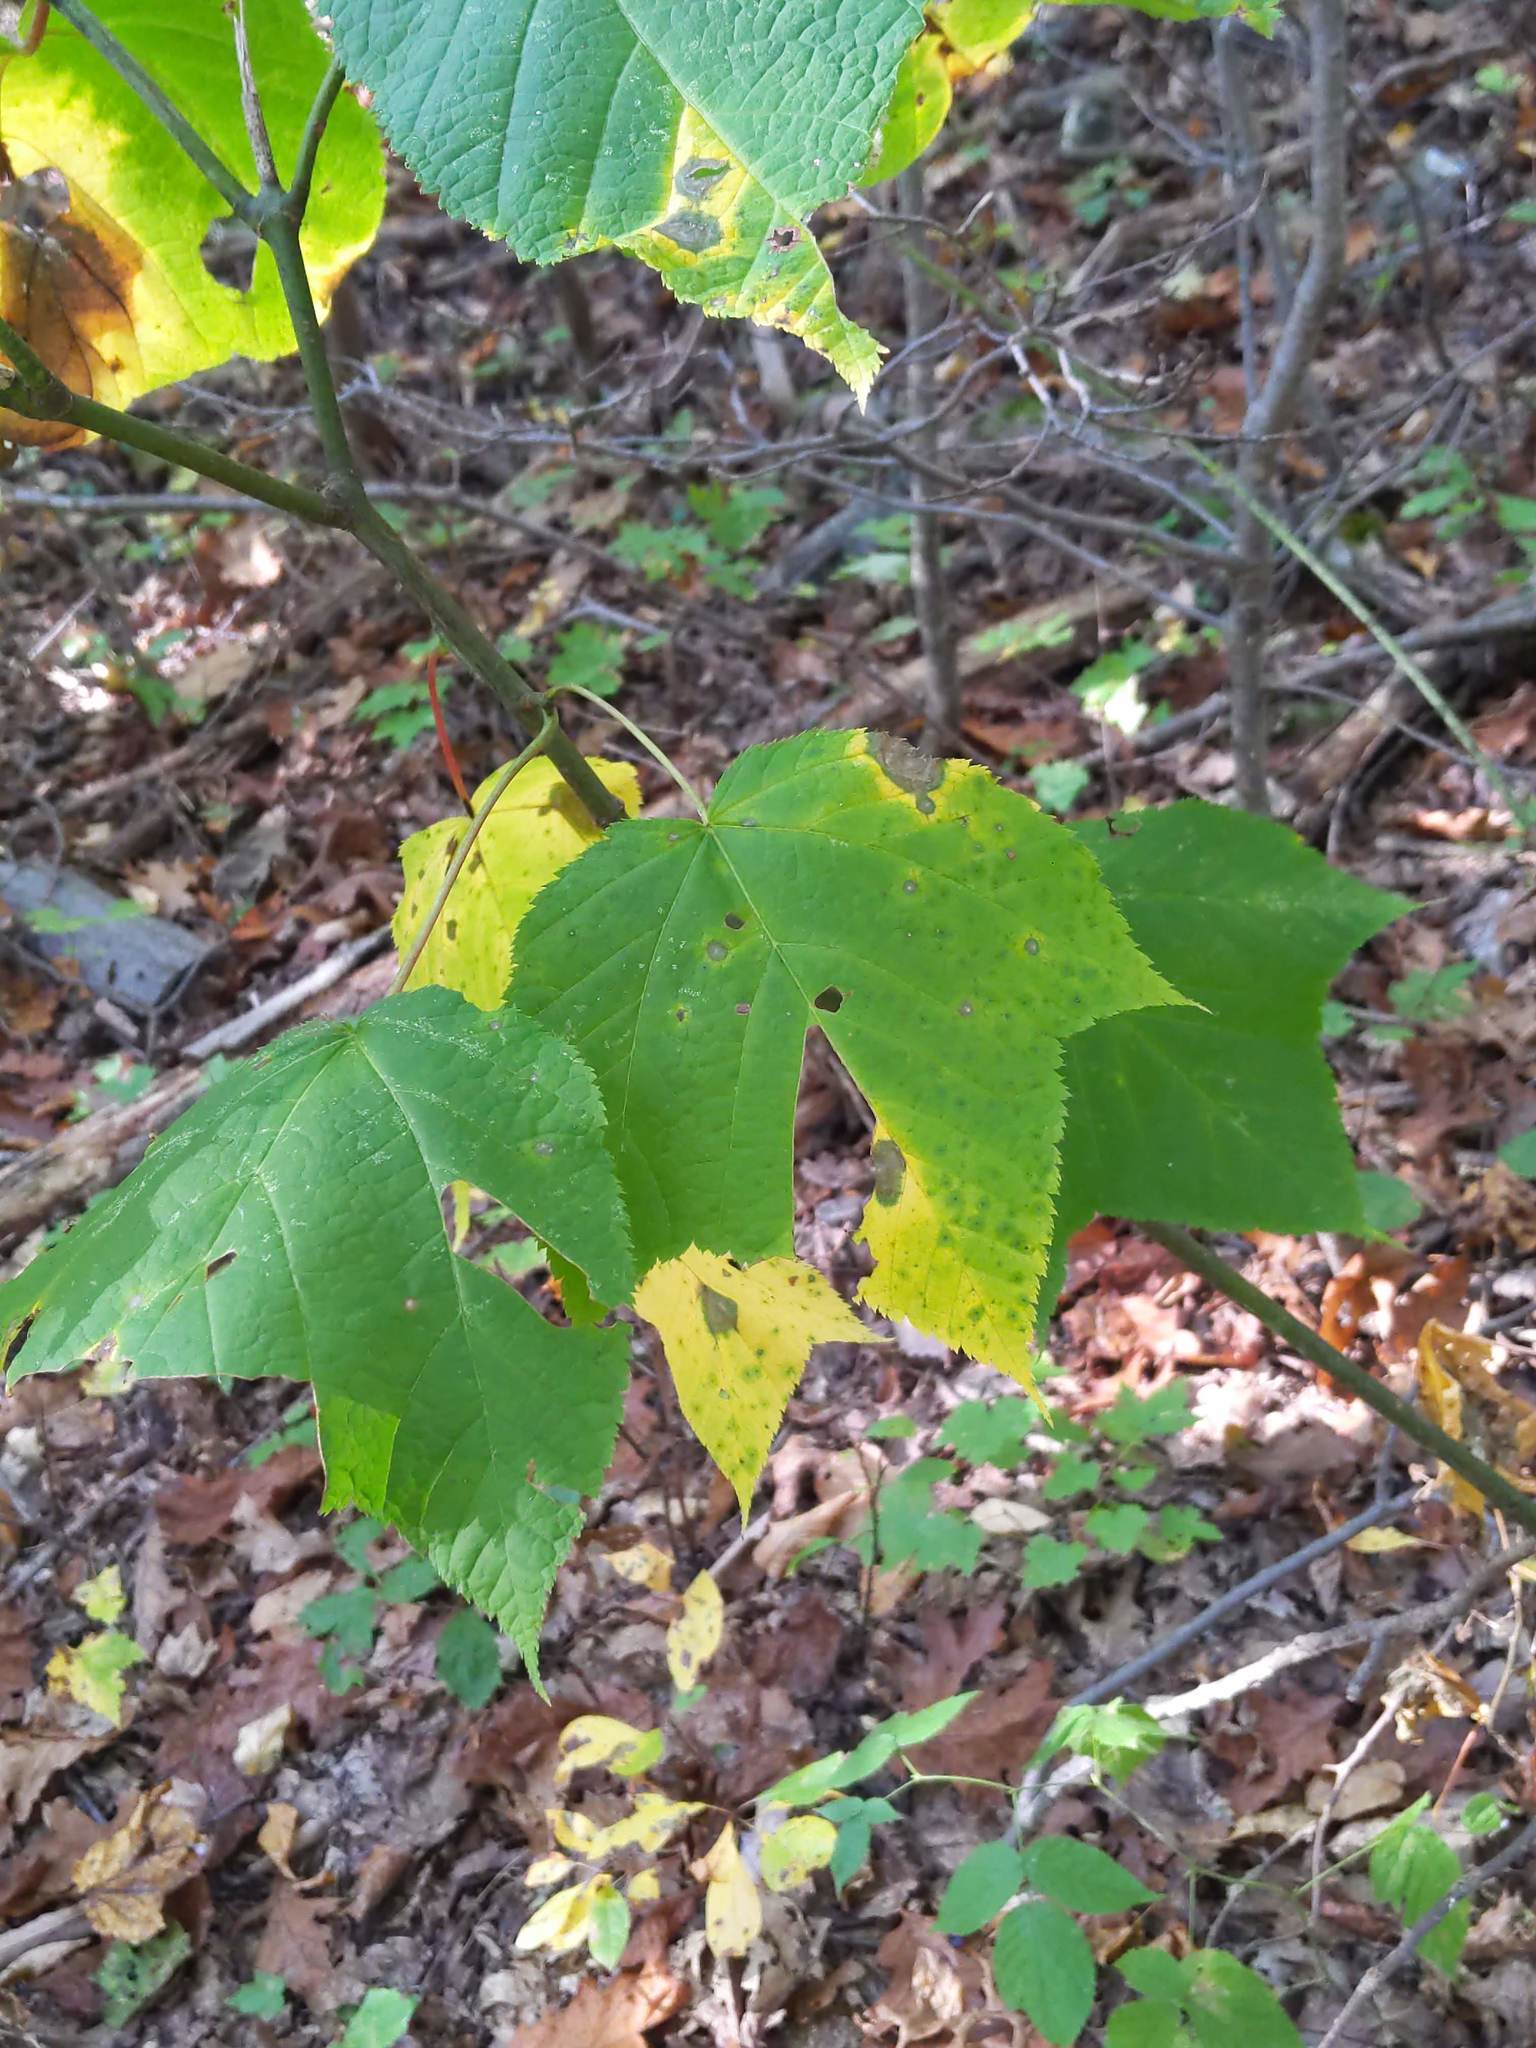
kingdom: Plantae
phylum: Tracheophyta
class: Magnoliopsida
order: Sapindales
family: Sapindaceae
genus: Acer
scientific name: Acer pensylvanicum
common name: Moosewood
